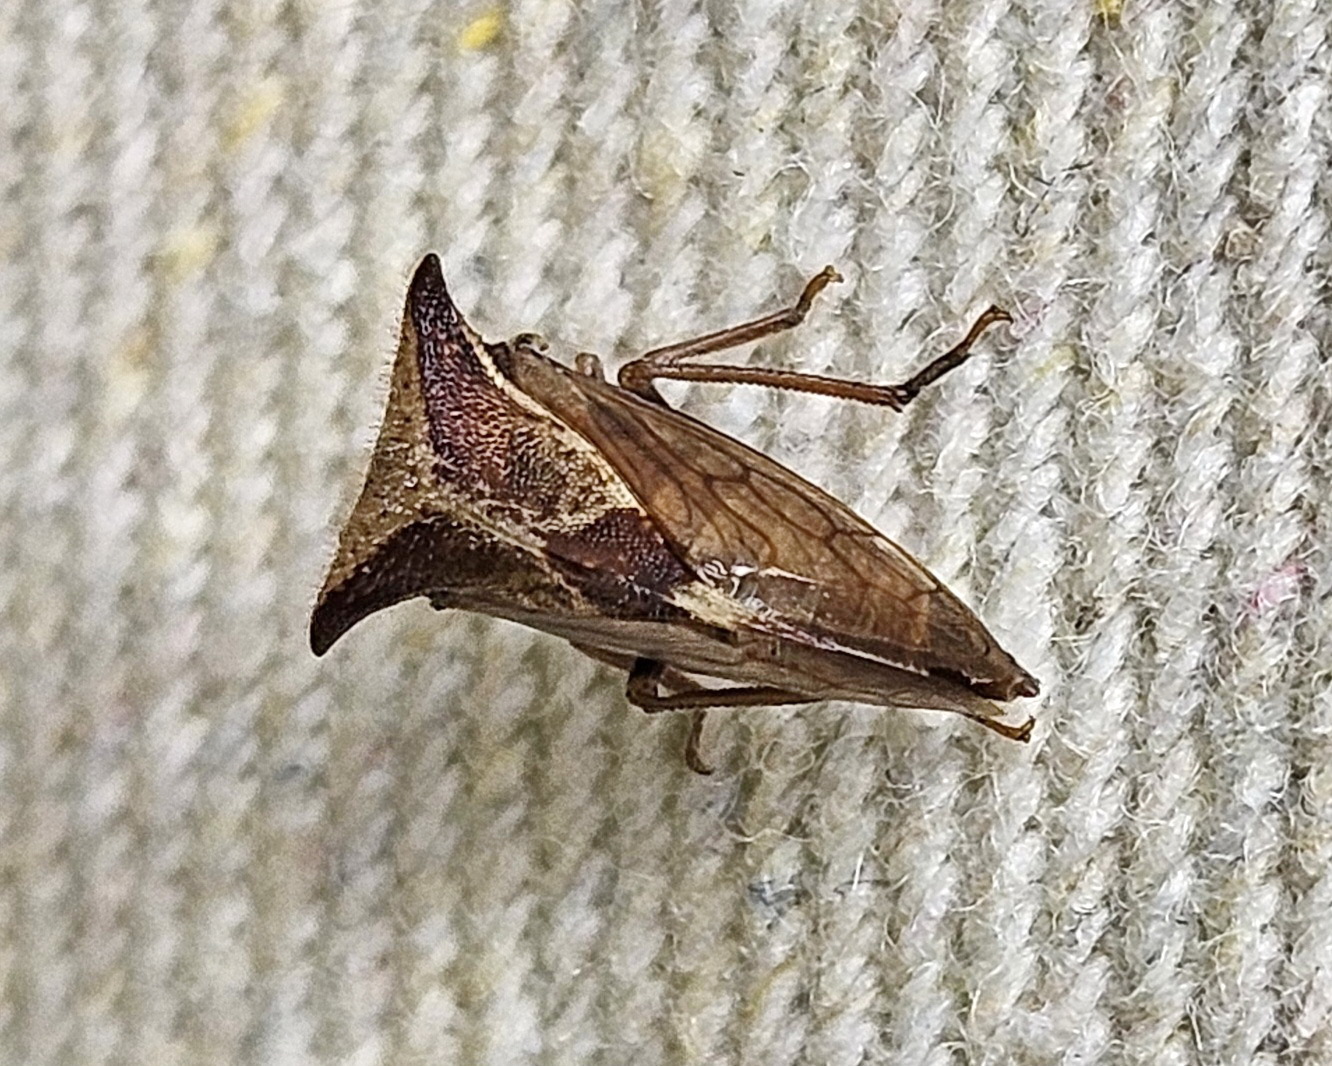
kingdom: Animalia
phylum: Arthropoda
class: Insecta
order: Hemiptera
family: Membracidae
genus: Stictocephala
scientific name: Stictocephala diceros
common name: Two-horned treehopper
